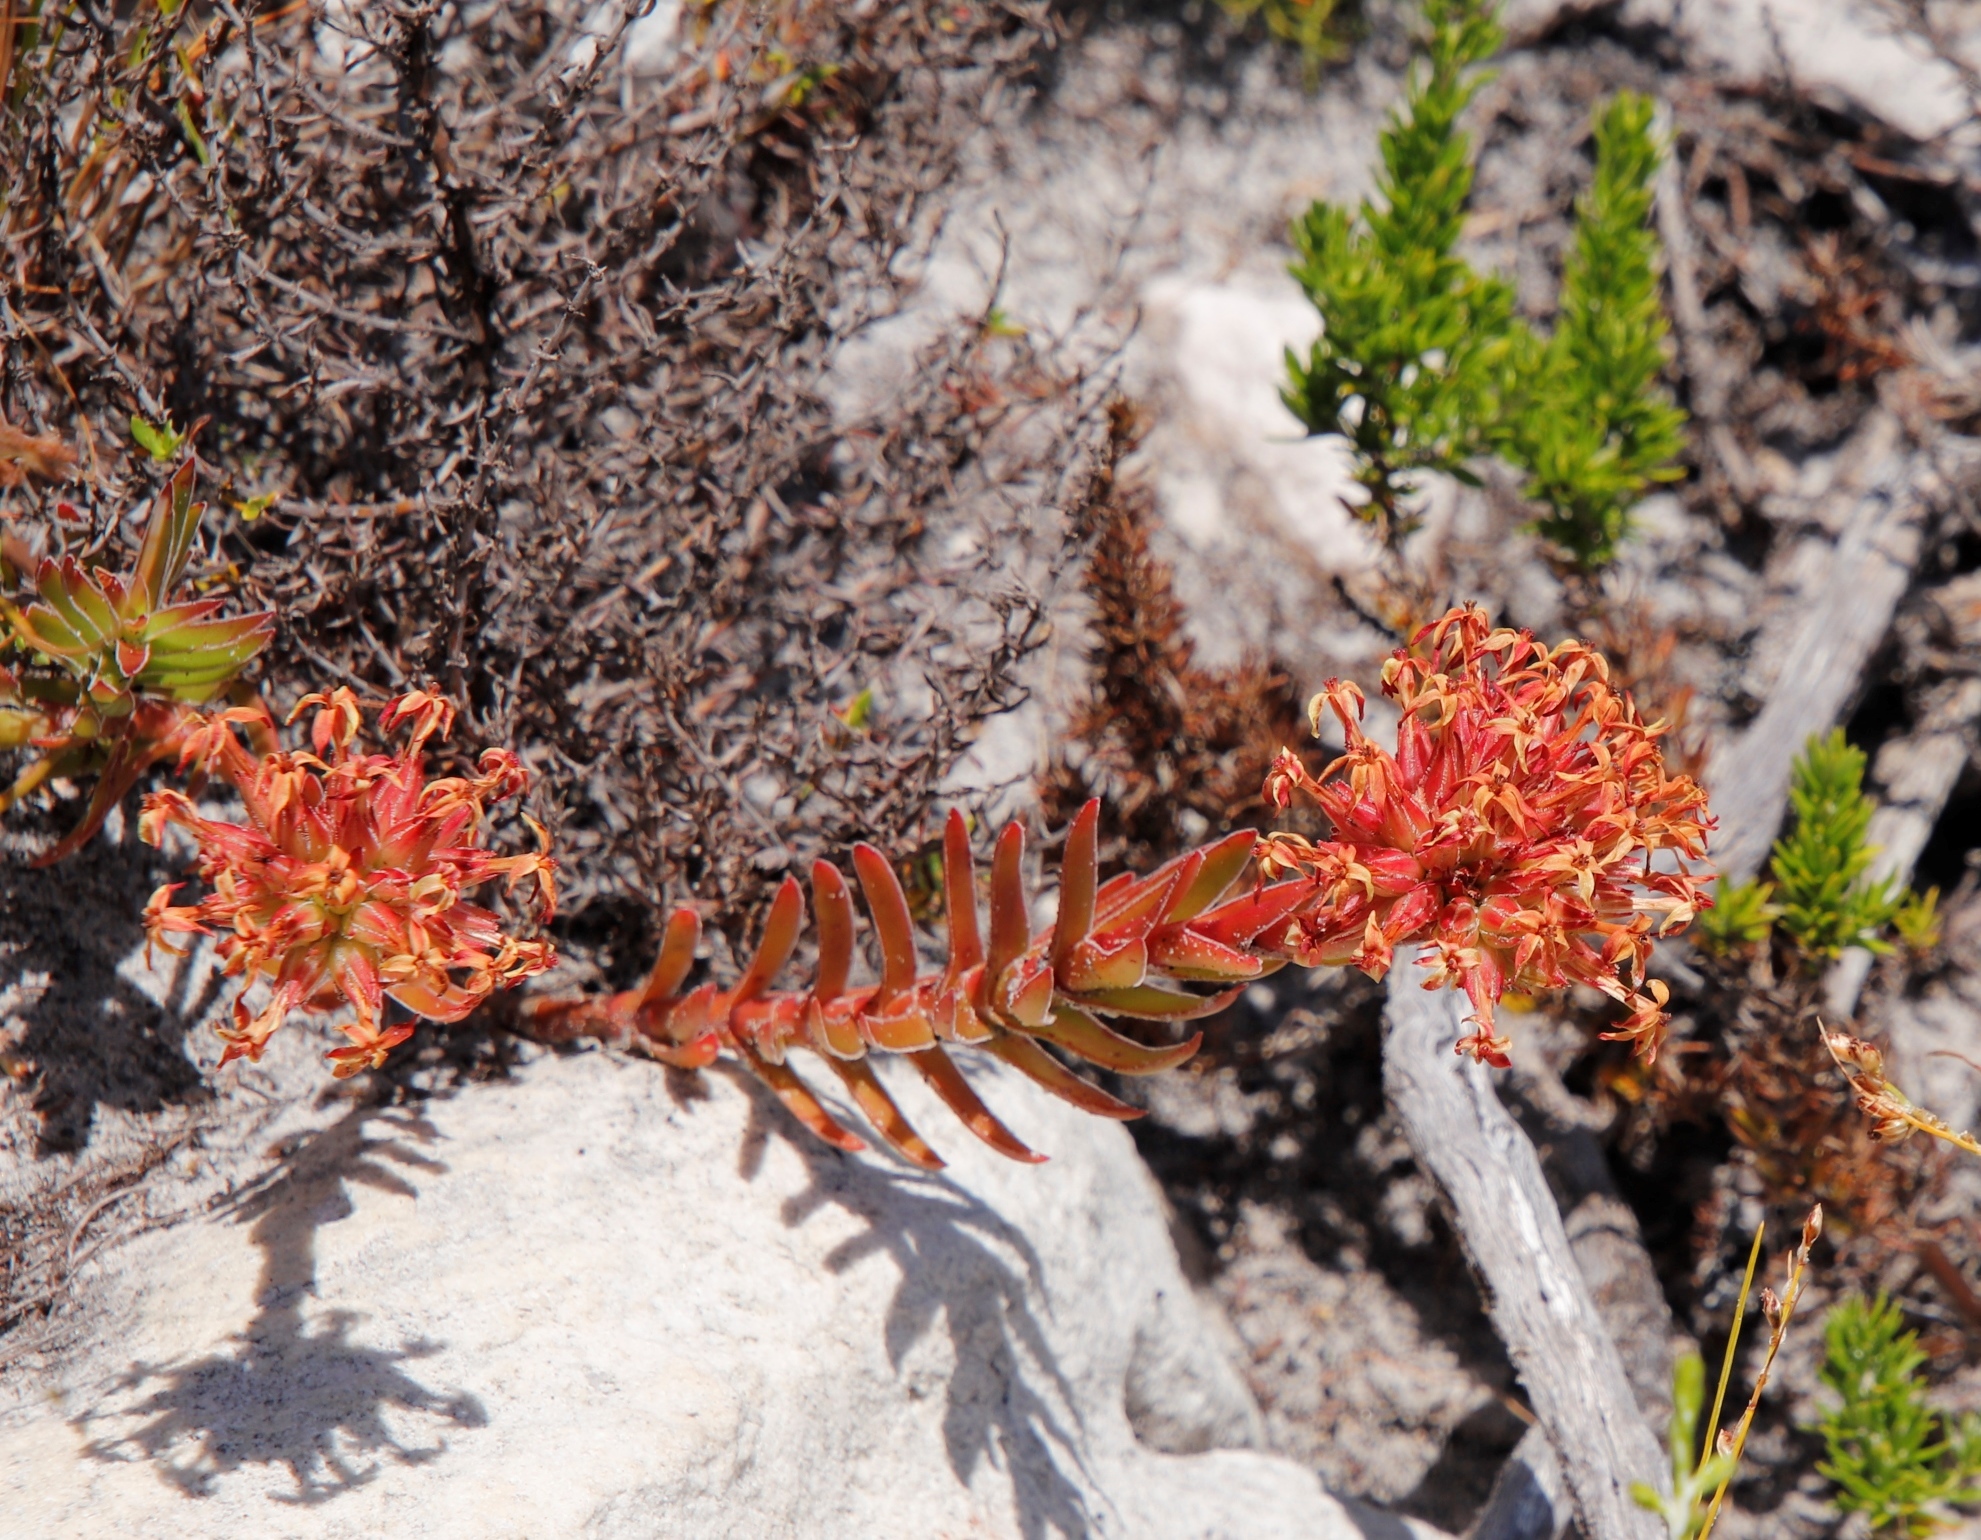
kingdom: Plantae
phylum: Tracheophyta
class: Magnoliopsida
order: Saxifragales
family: Crassulaceae
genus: Crassula
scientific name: Crassula fascicularis
